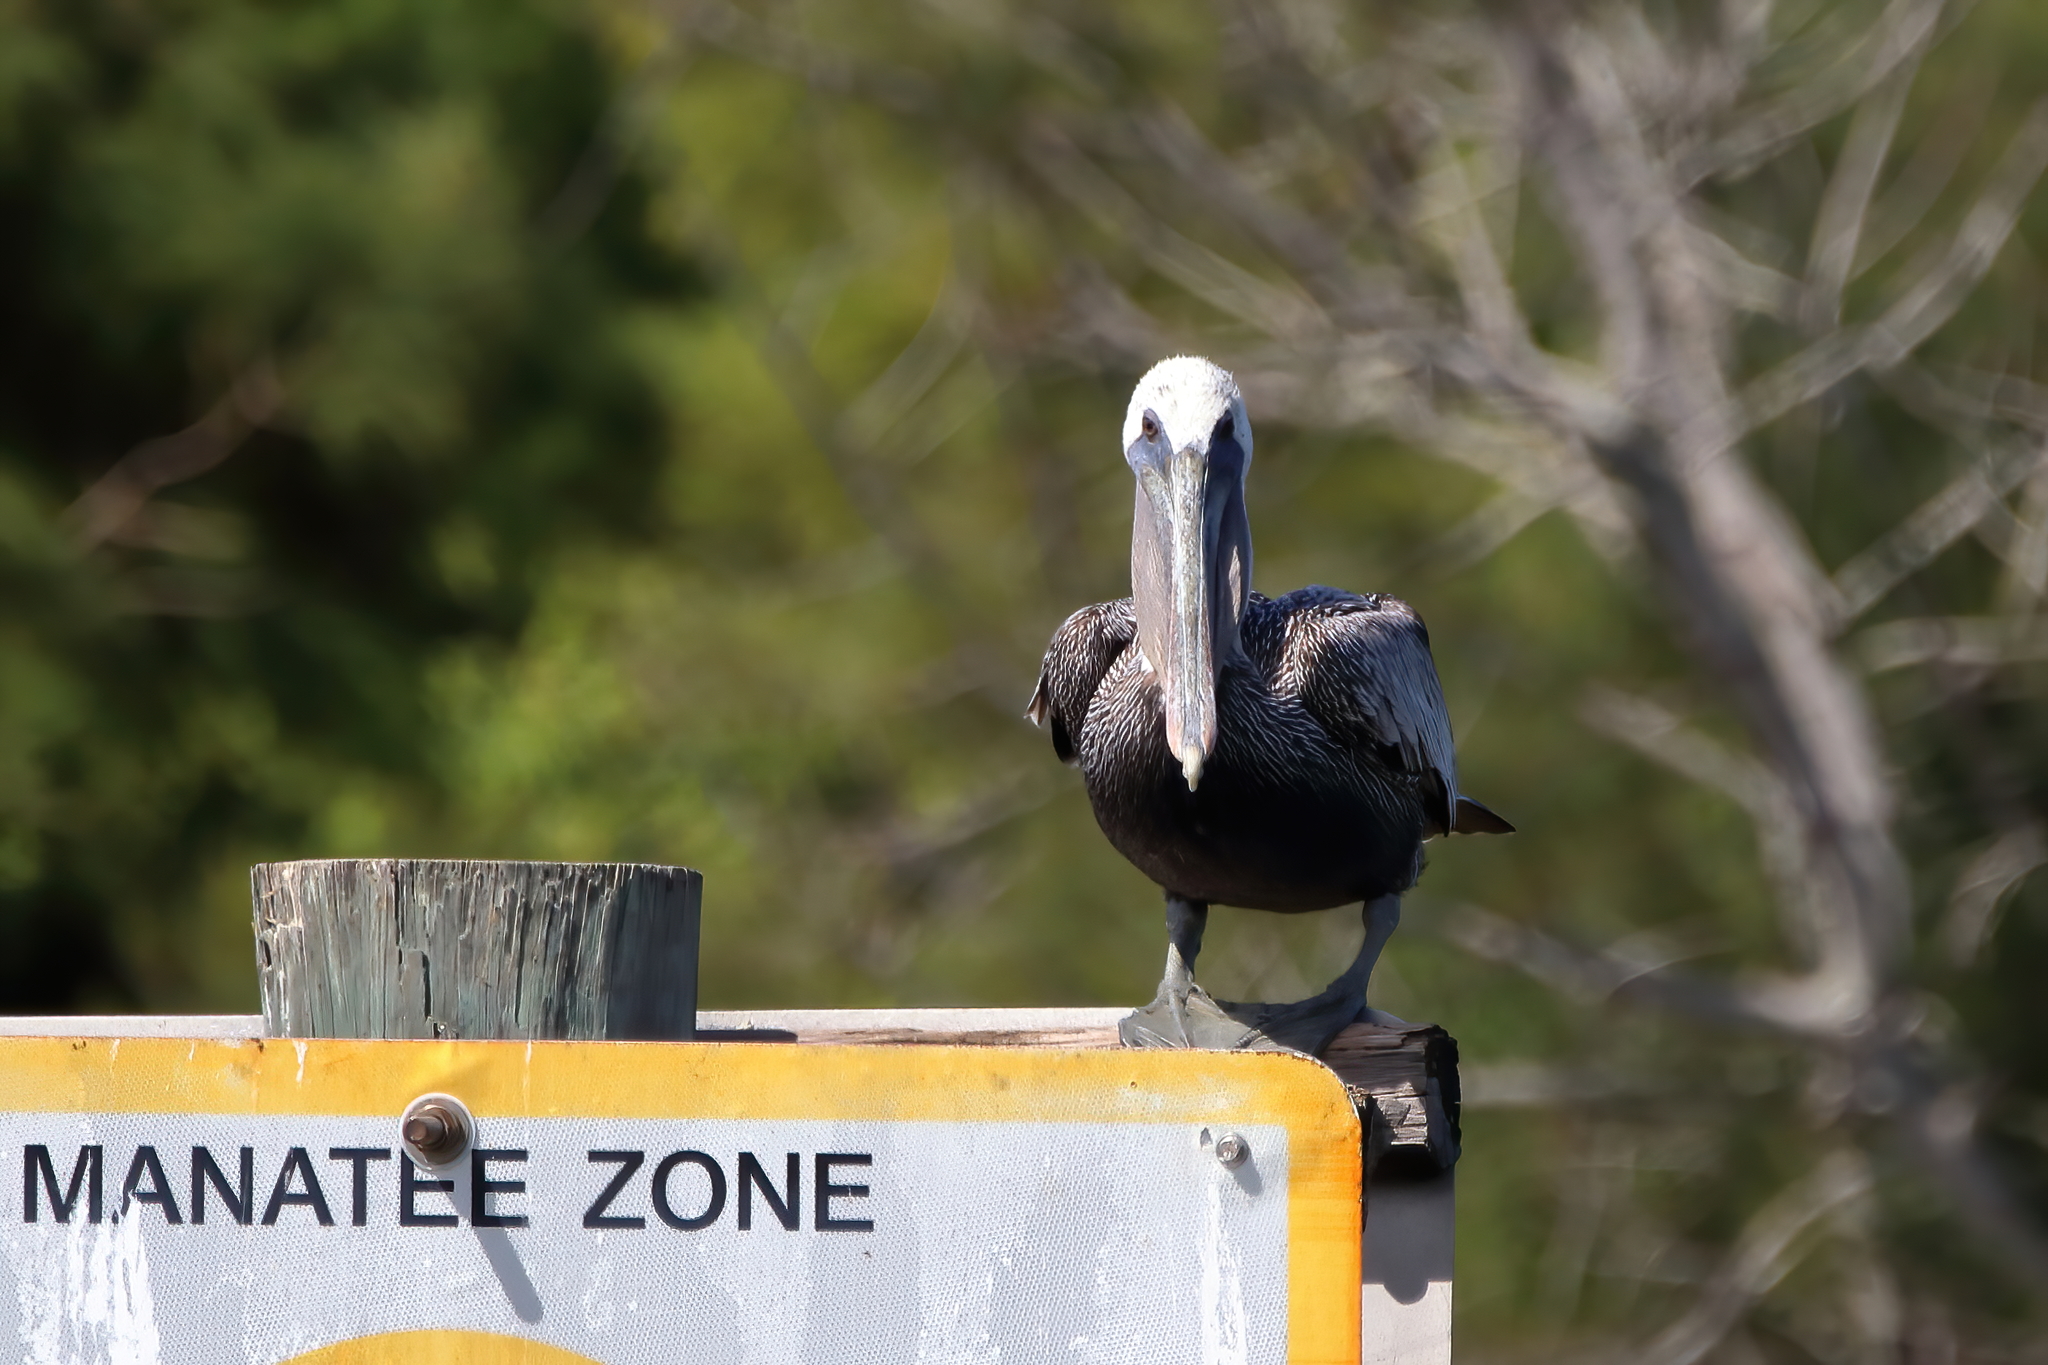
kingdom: Animalia
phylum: Chordata
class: Aves
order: Pelecaniformes
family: Pelecanidae
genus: Pelecanus
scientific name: Pelecanus occidentalis
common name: Brown pelican
